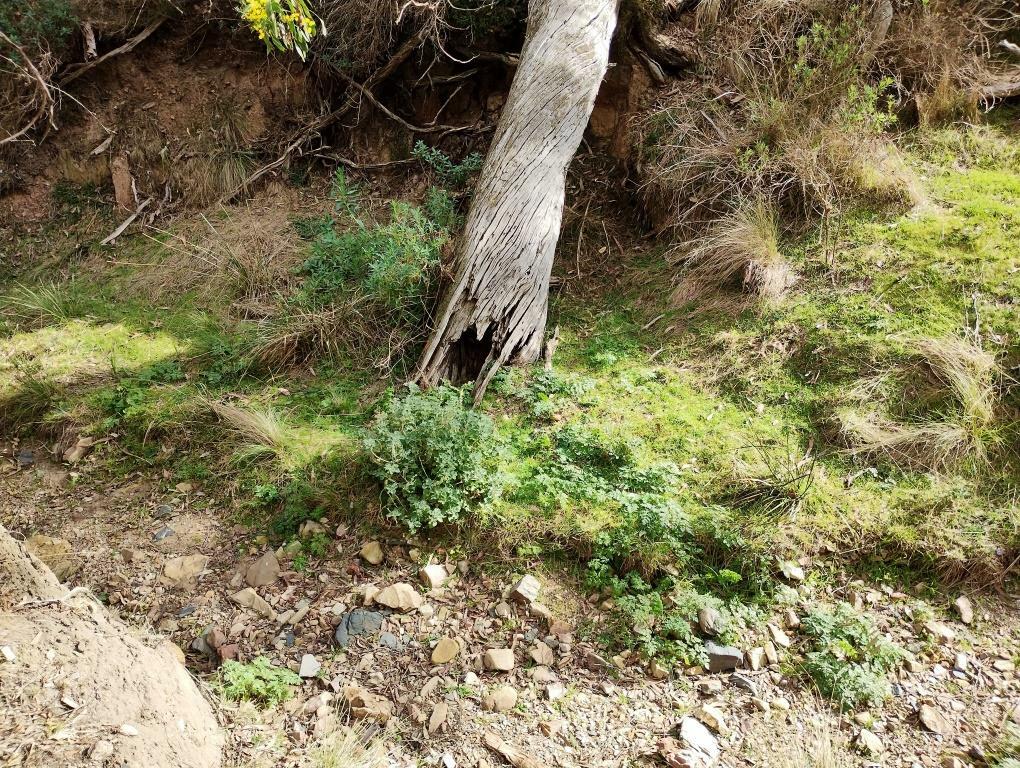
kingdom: Plantae
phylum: Tracheophyta
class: Magnoliopsida
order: Lamiales
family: Lamiaceae
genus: Marrubium
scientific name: Marrubium vulgare
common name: Horehound
